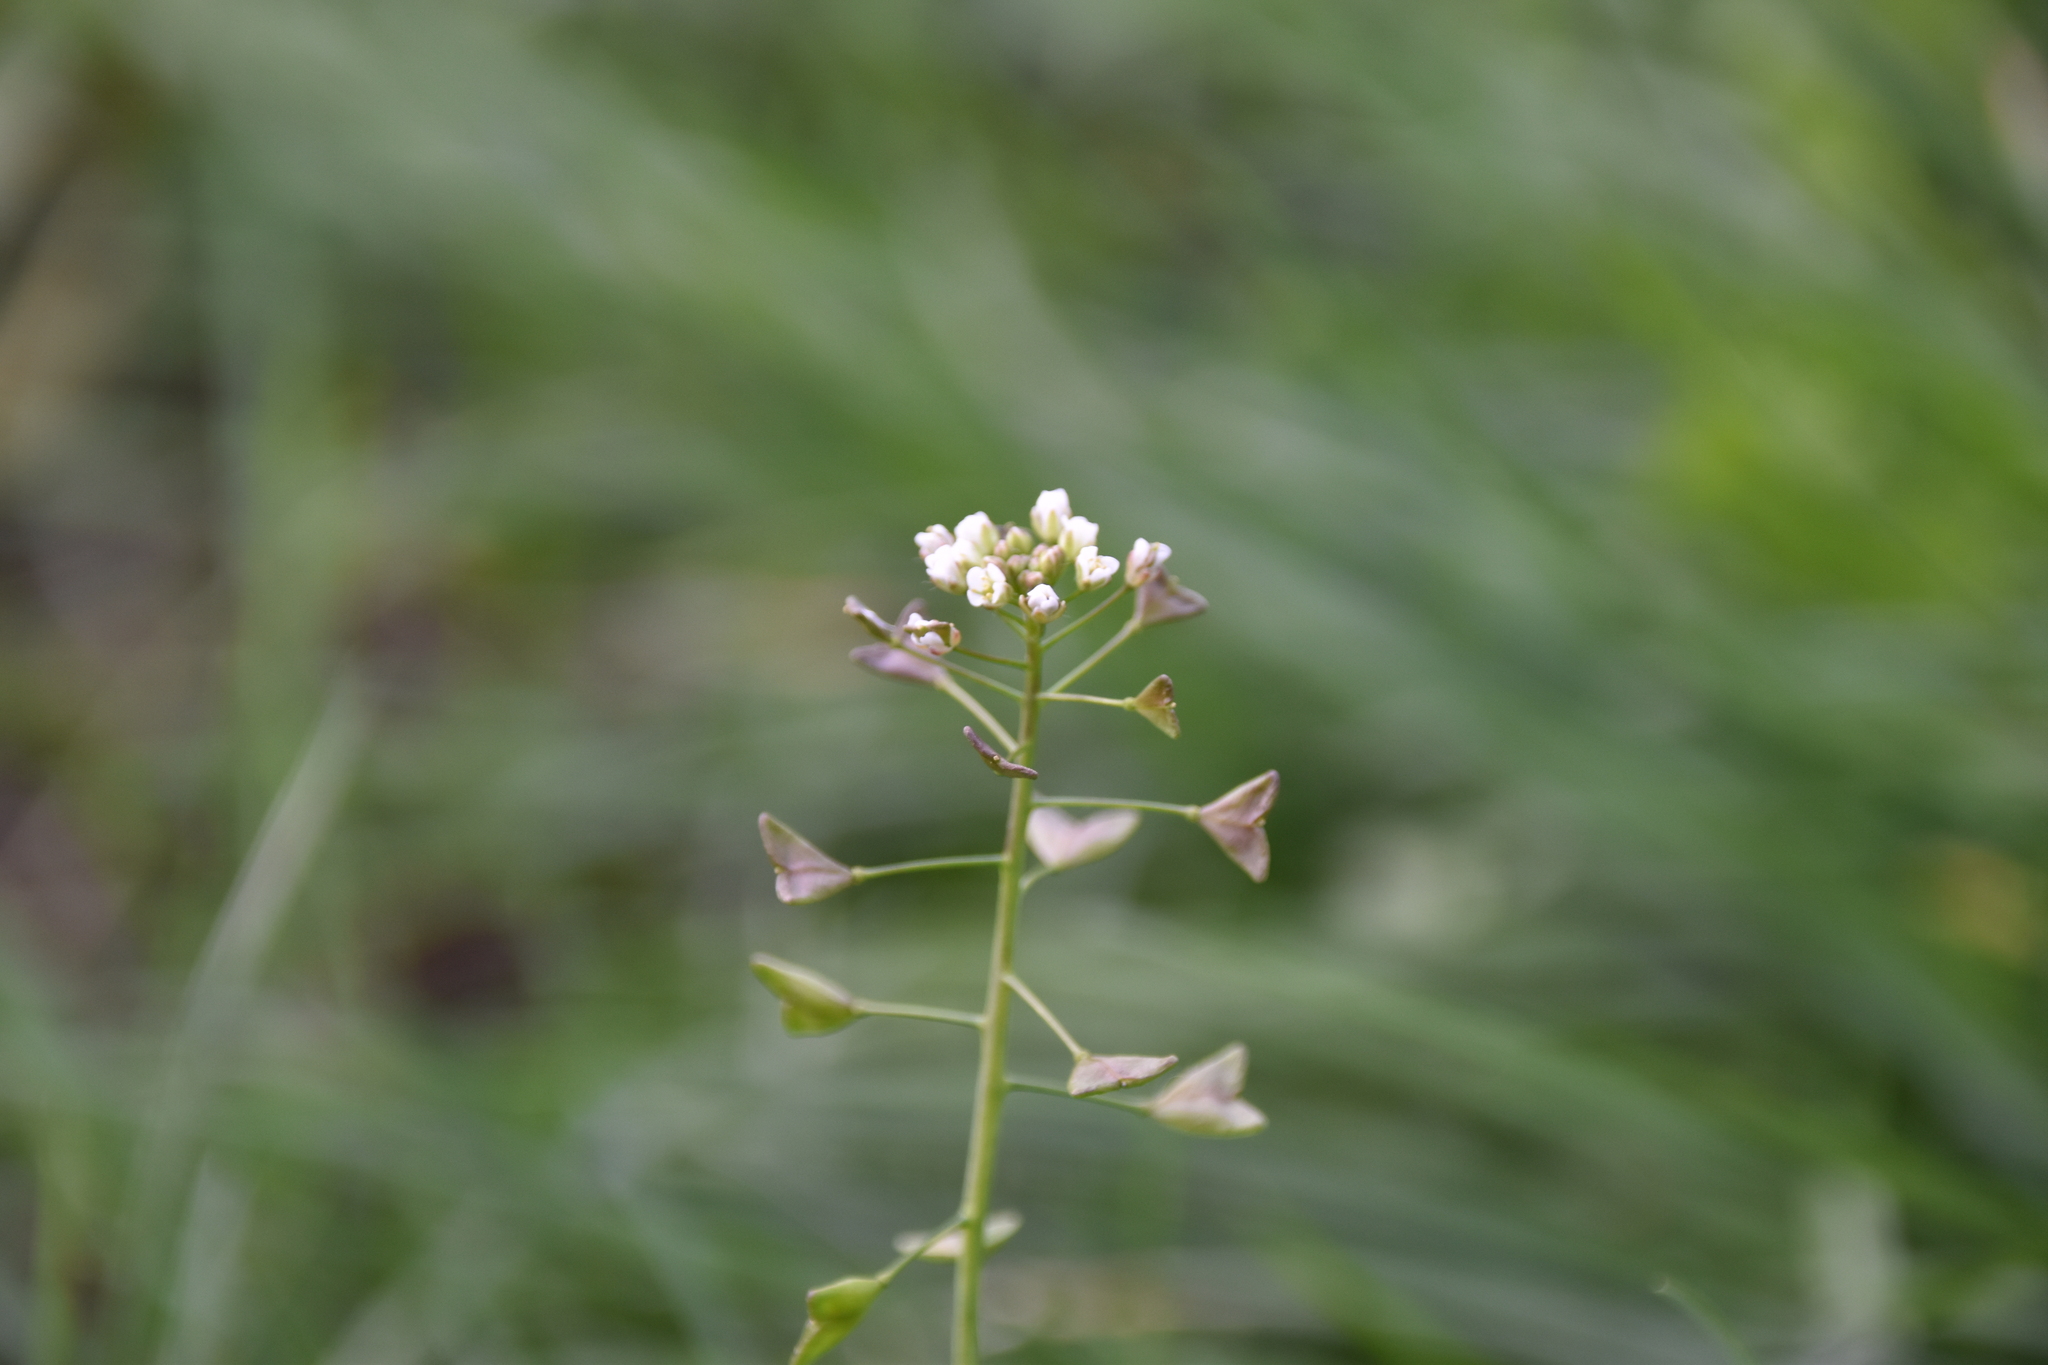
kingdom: Plantae
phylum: Tracheophyta
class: Magnoliopsida
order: Brassicales
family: Brassicaceae
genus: Capsella
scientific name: Capsella bursa-pastoris
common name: Shepherd's purse
